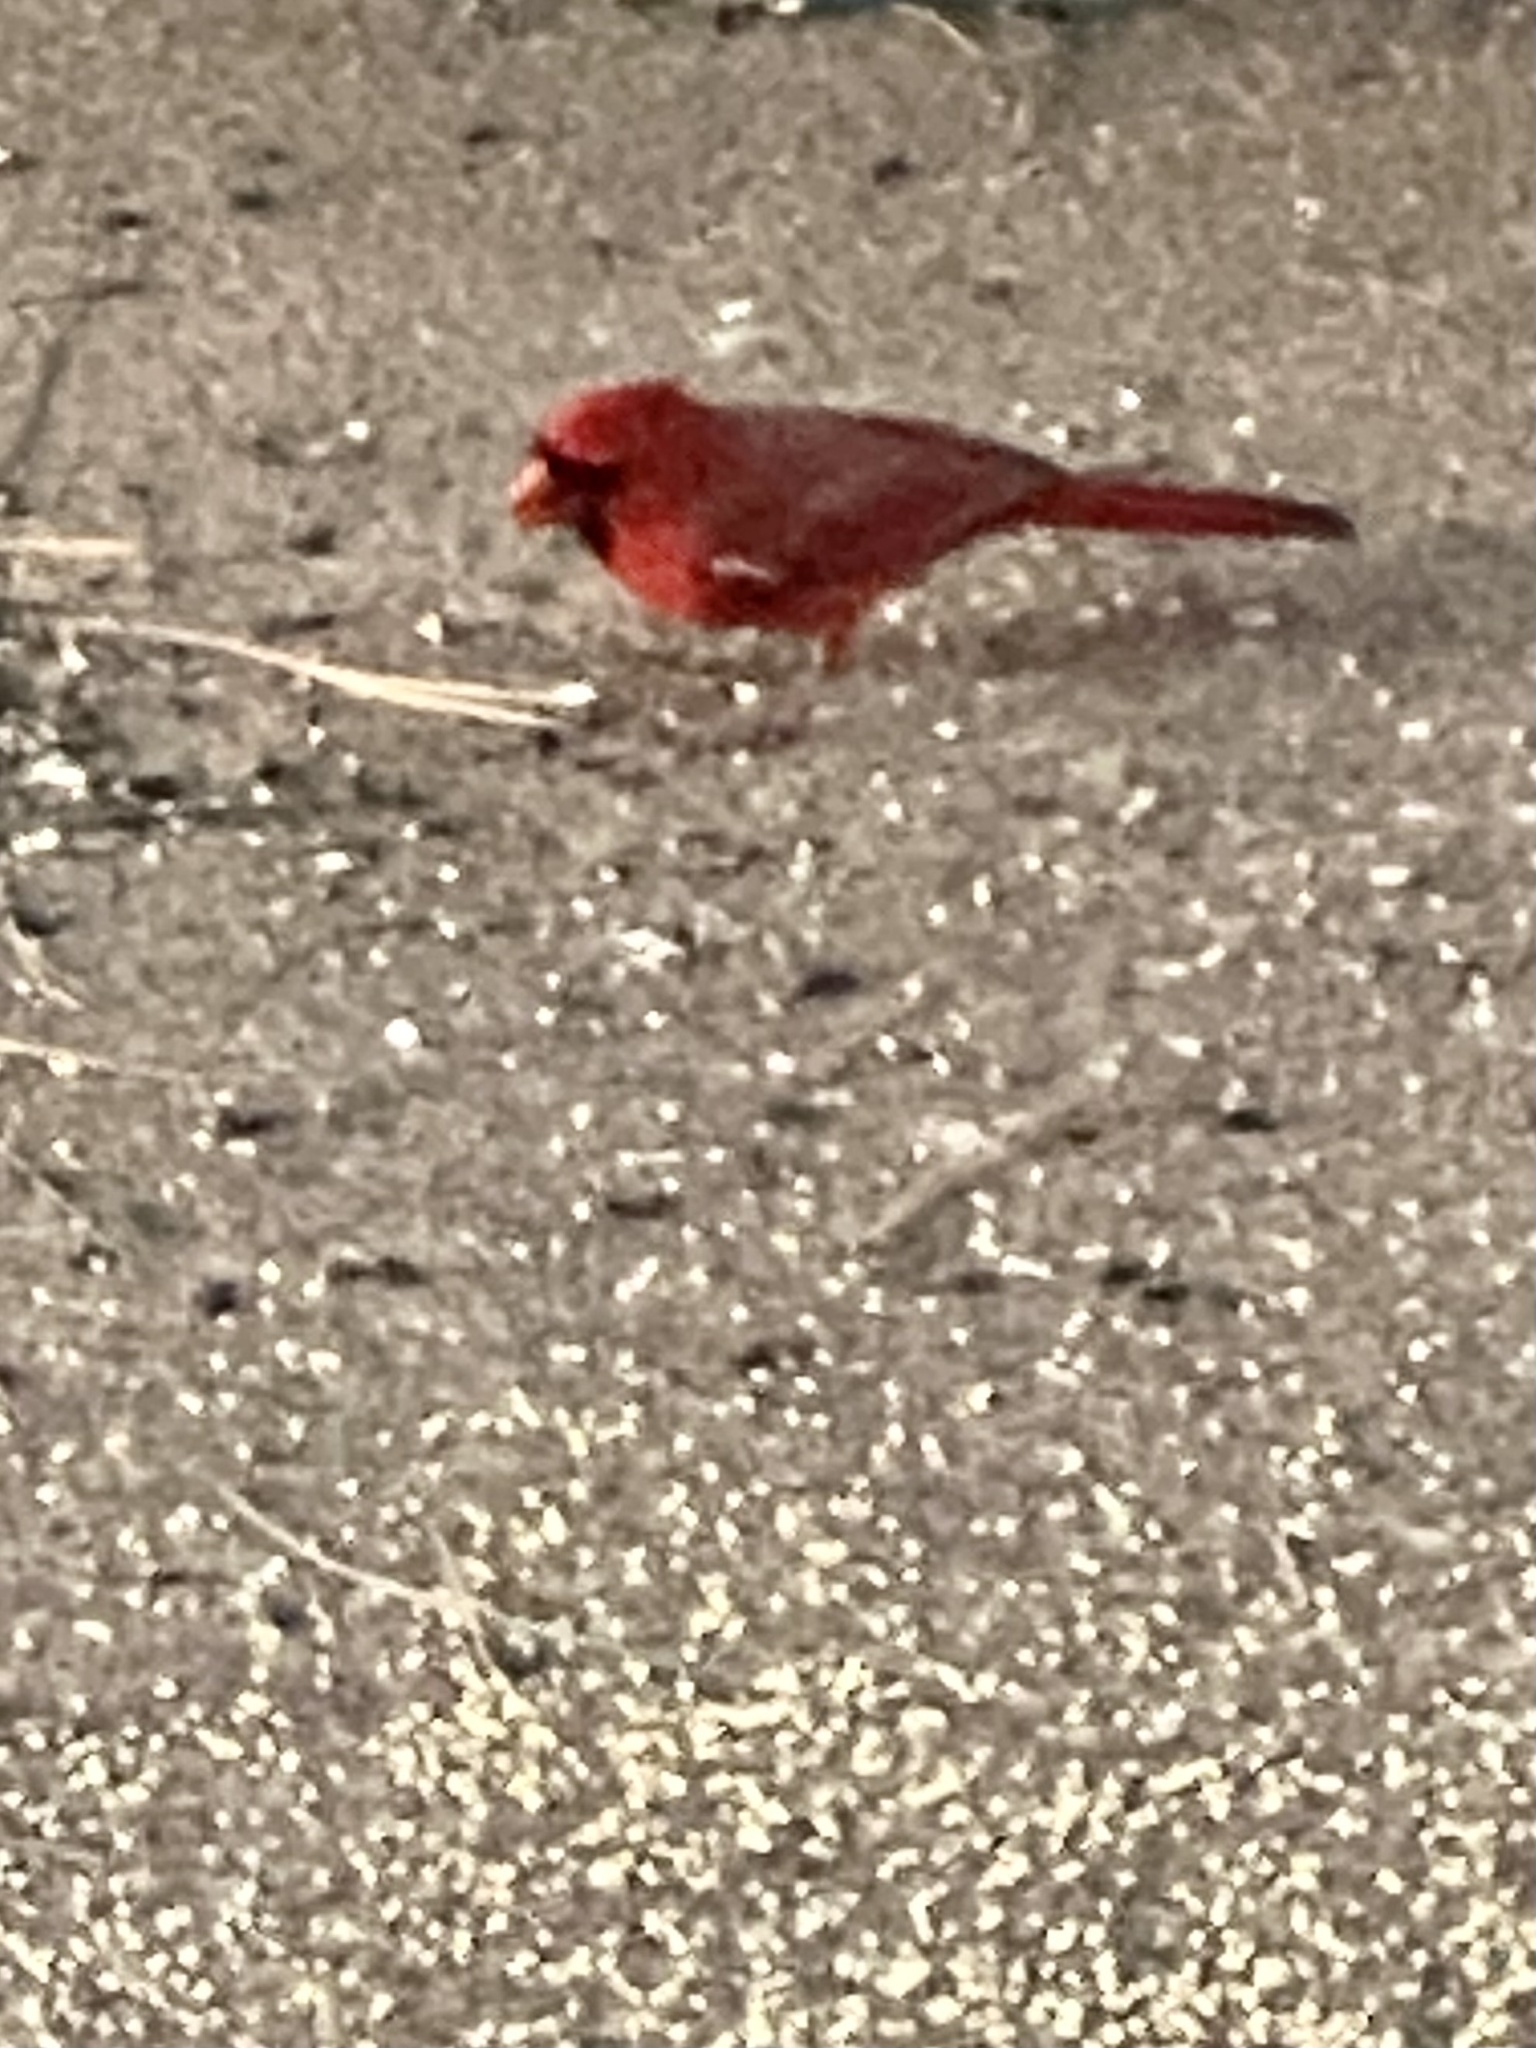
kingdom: Animalia
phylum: Chordata
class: Aves
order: Passeriformes
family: Cardinalidae
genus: Cardinalis
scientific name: Cardinalis cardinalis
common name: Northern cardinal
